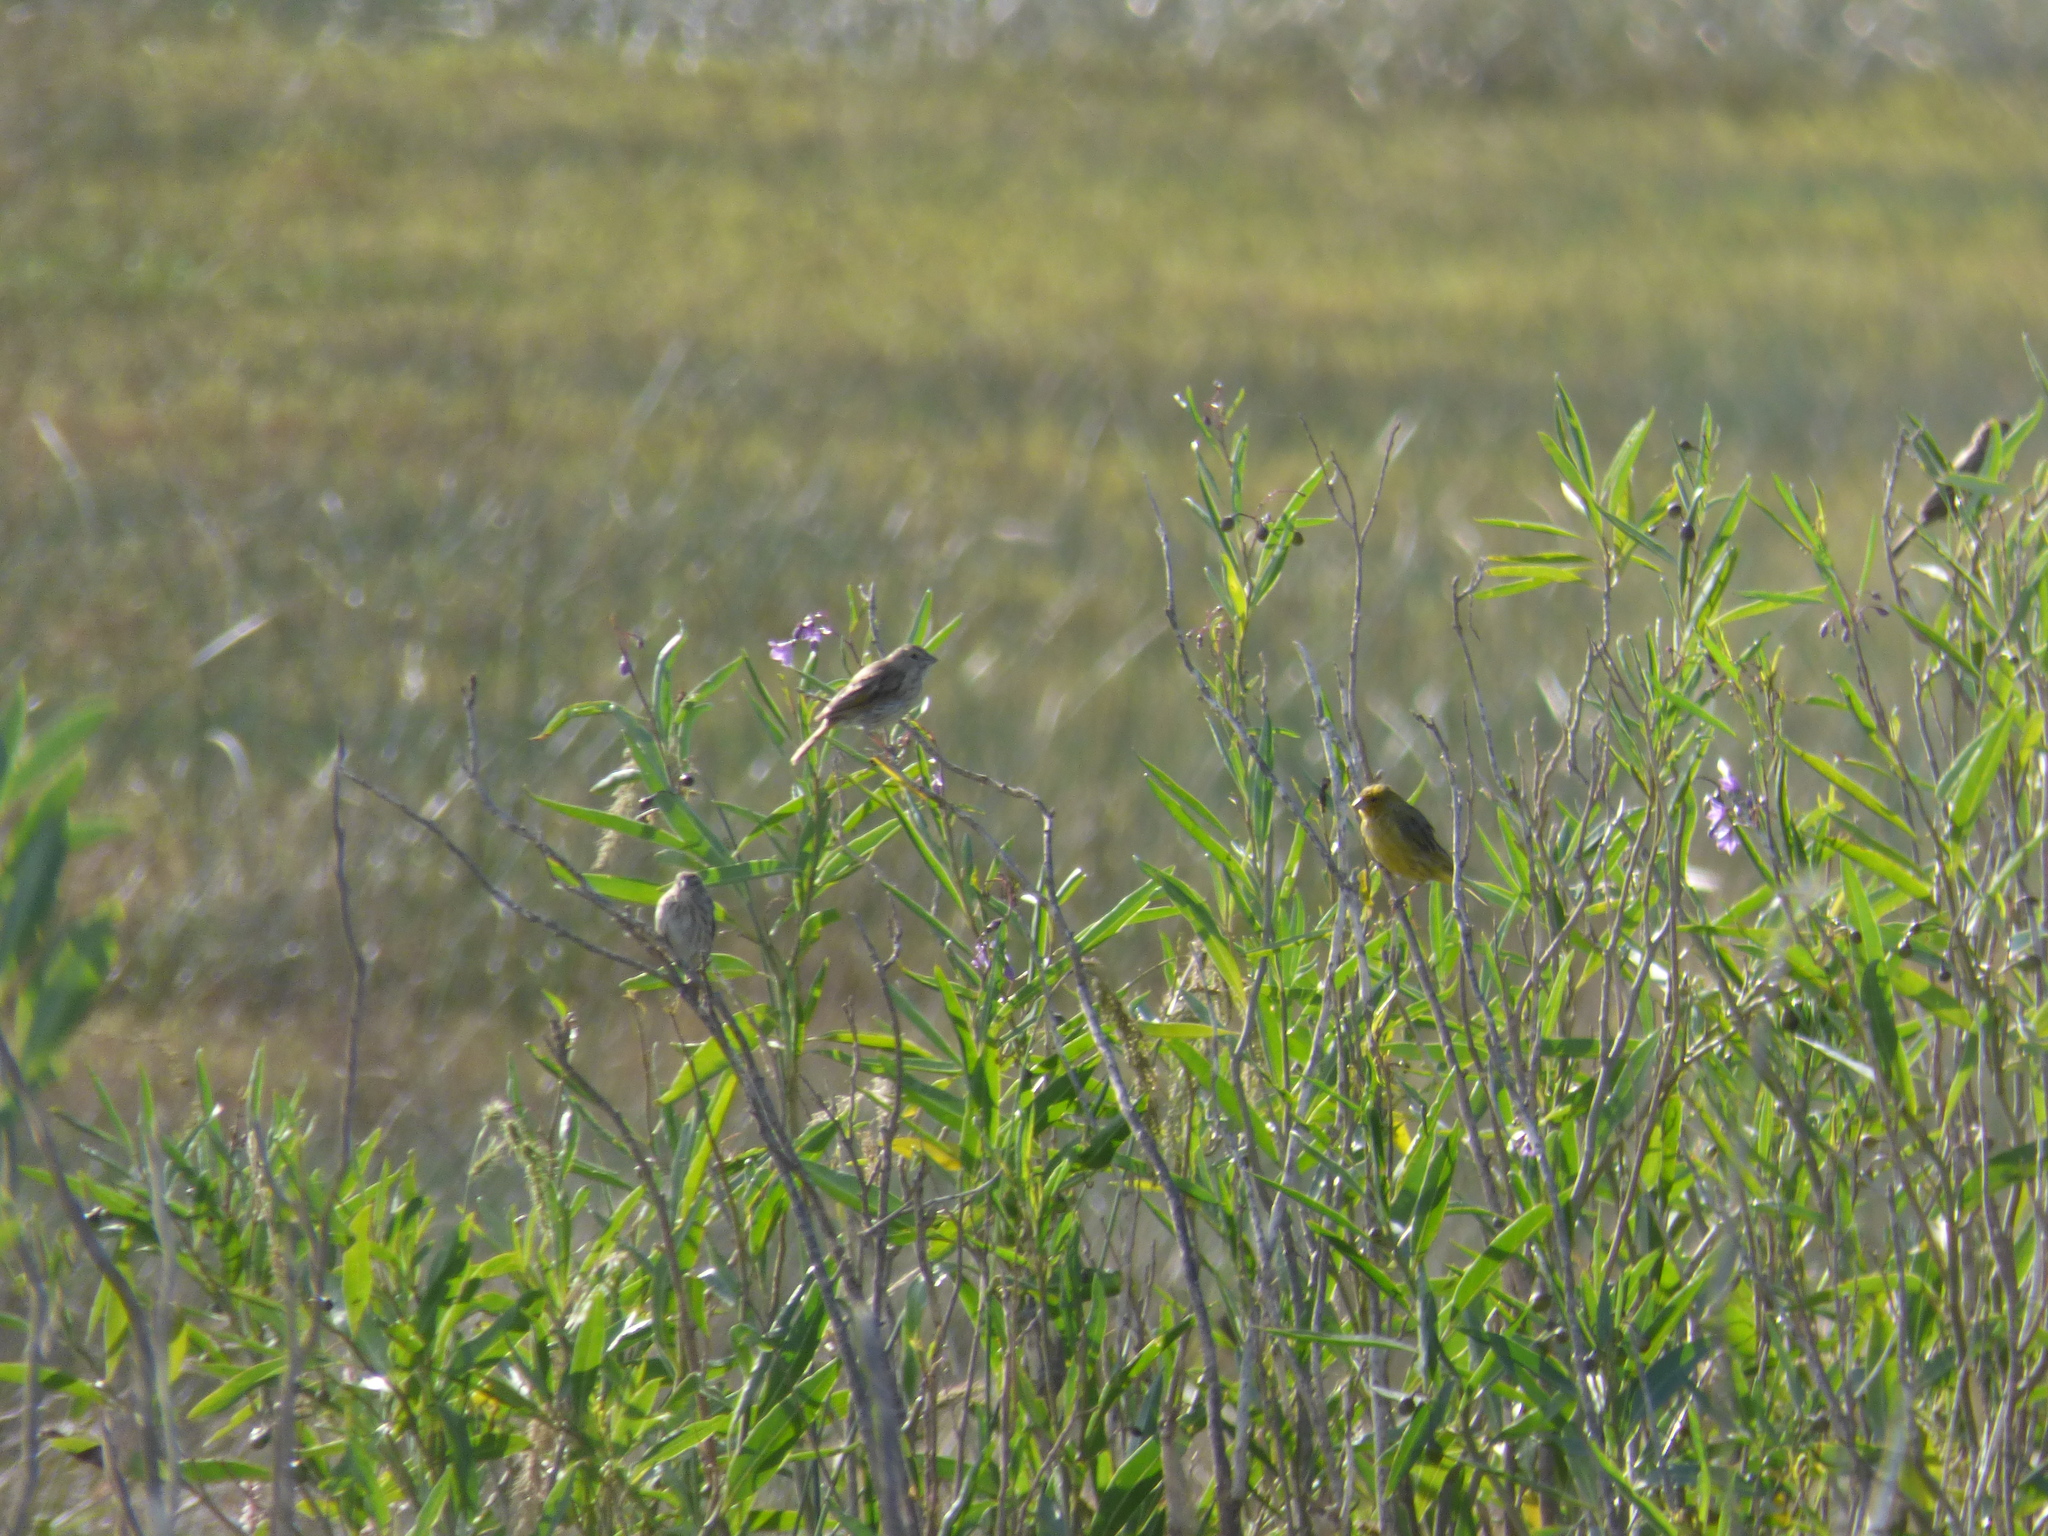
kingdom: Animalia
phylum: Chordata
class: Aves
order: Passeriformes
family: Thraupidae
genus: Sicalis
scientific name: Sicalis flaveola
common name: Saffron finch
